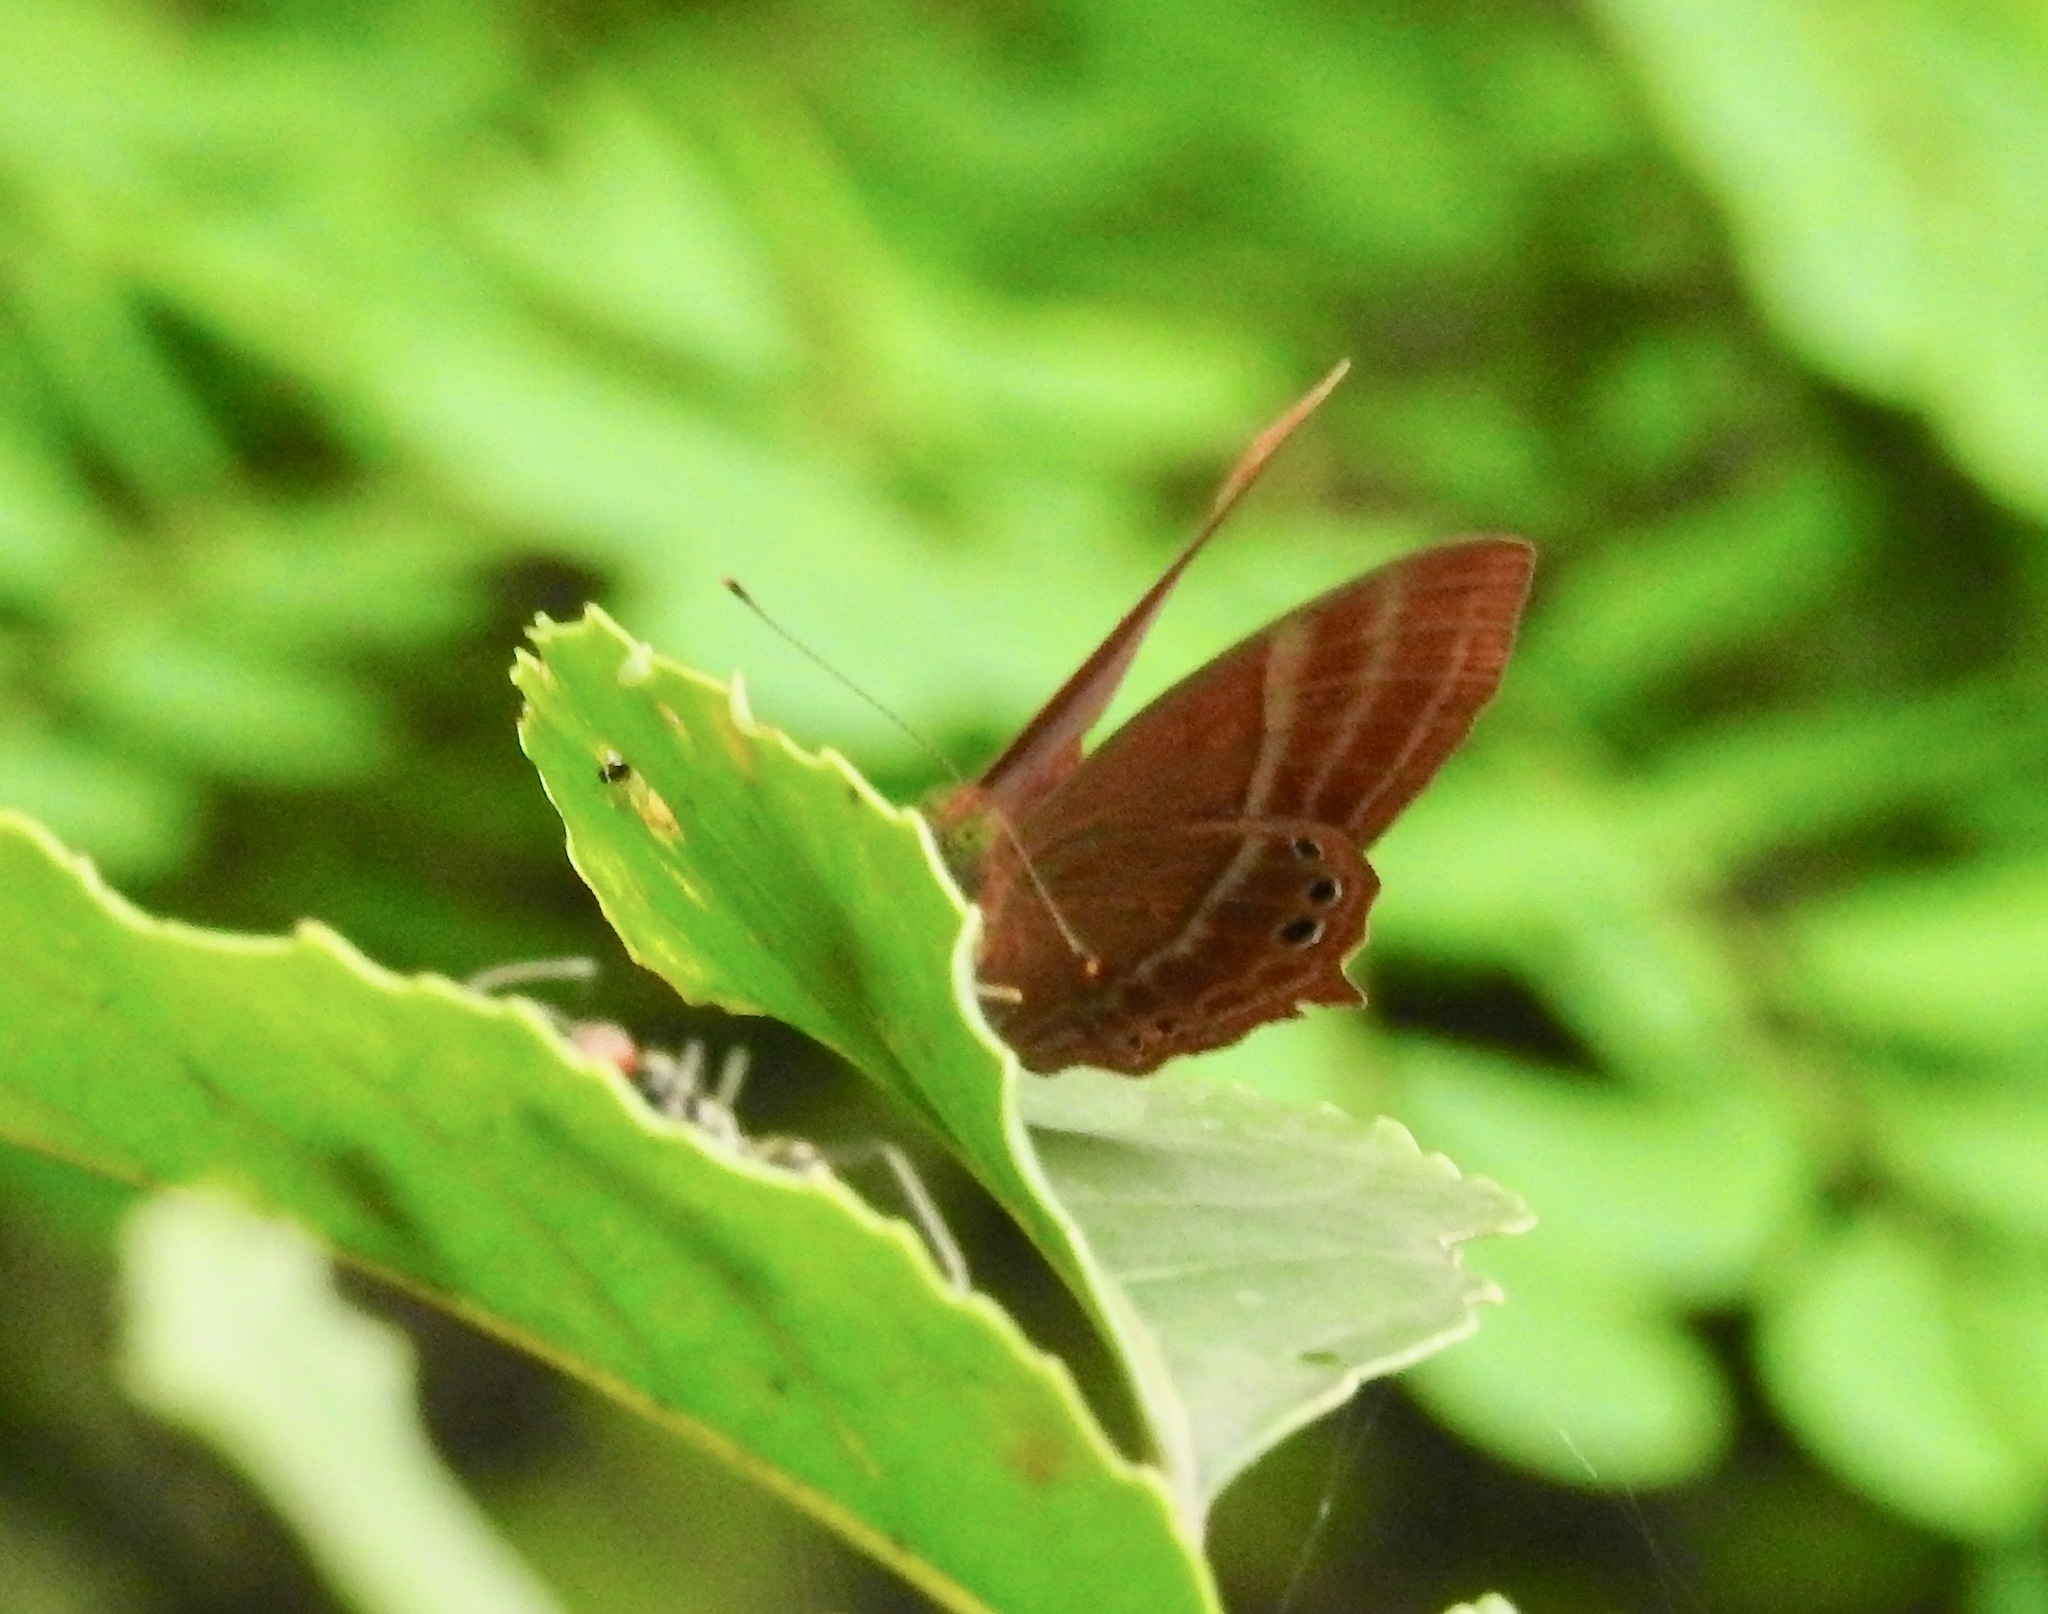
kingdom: Animalia
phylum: Arthropoda
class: Insecta
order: Lepidoptera
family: Lycaenidae
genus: Abisara
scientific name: Abisara echeria
